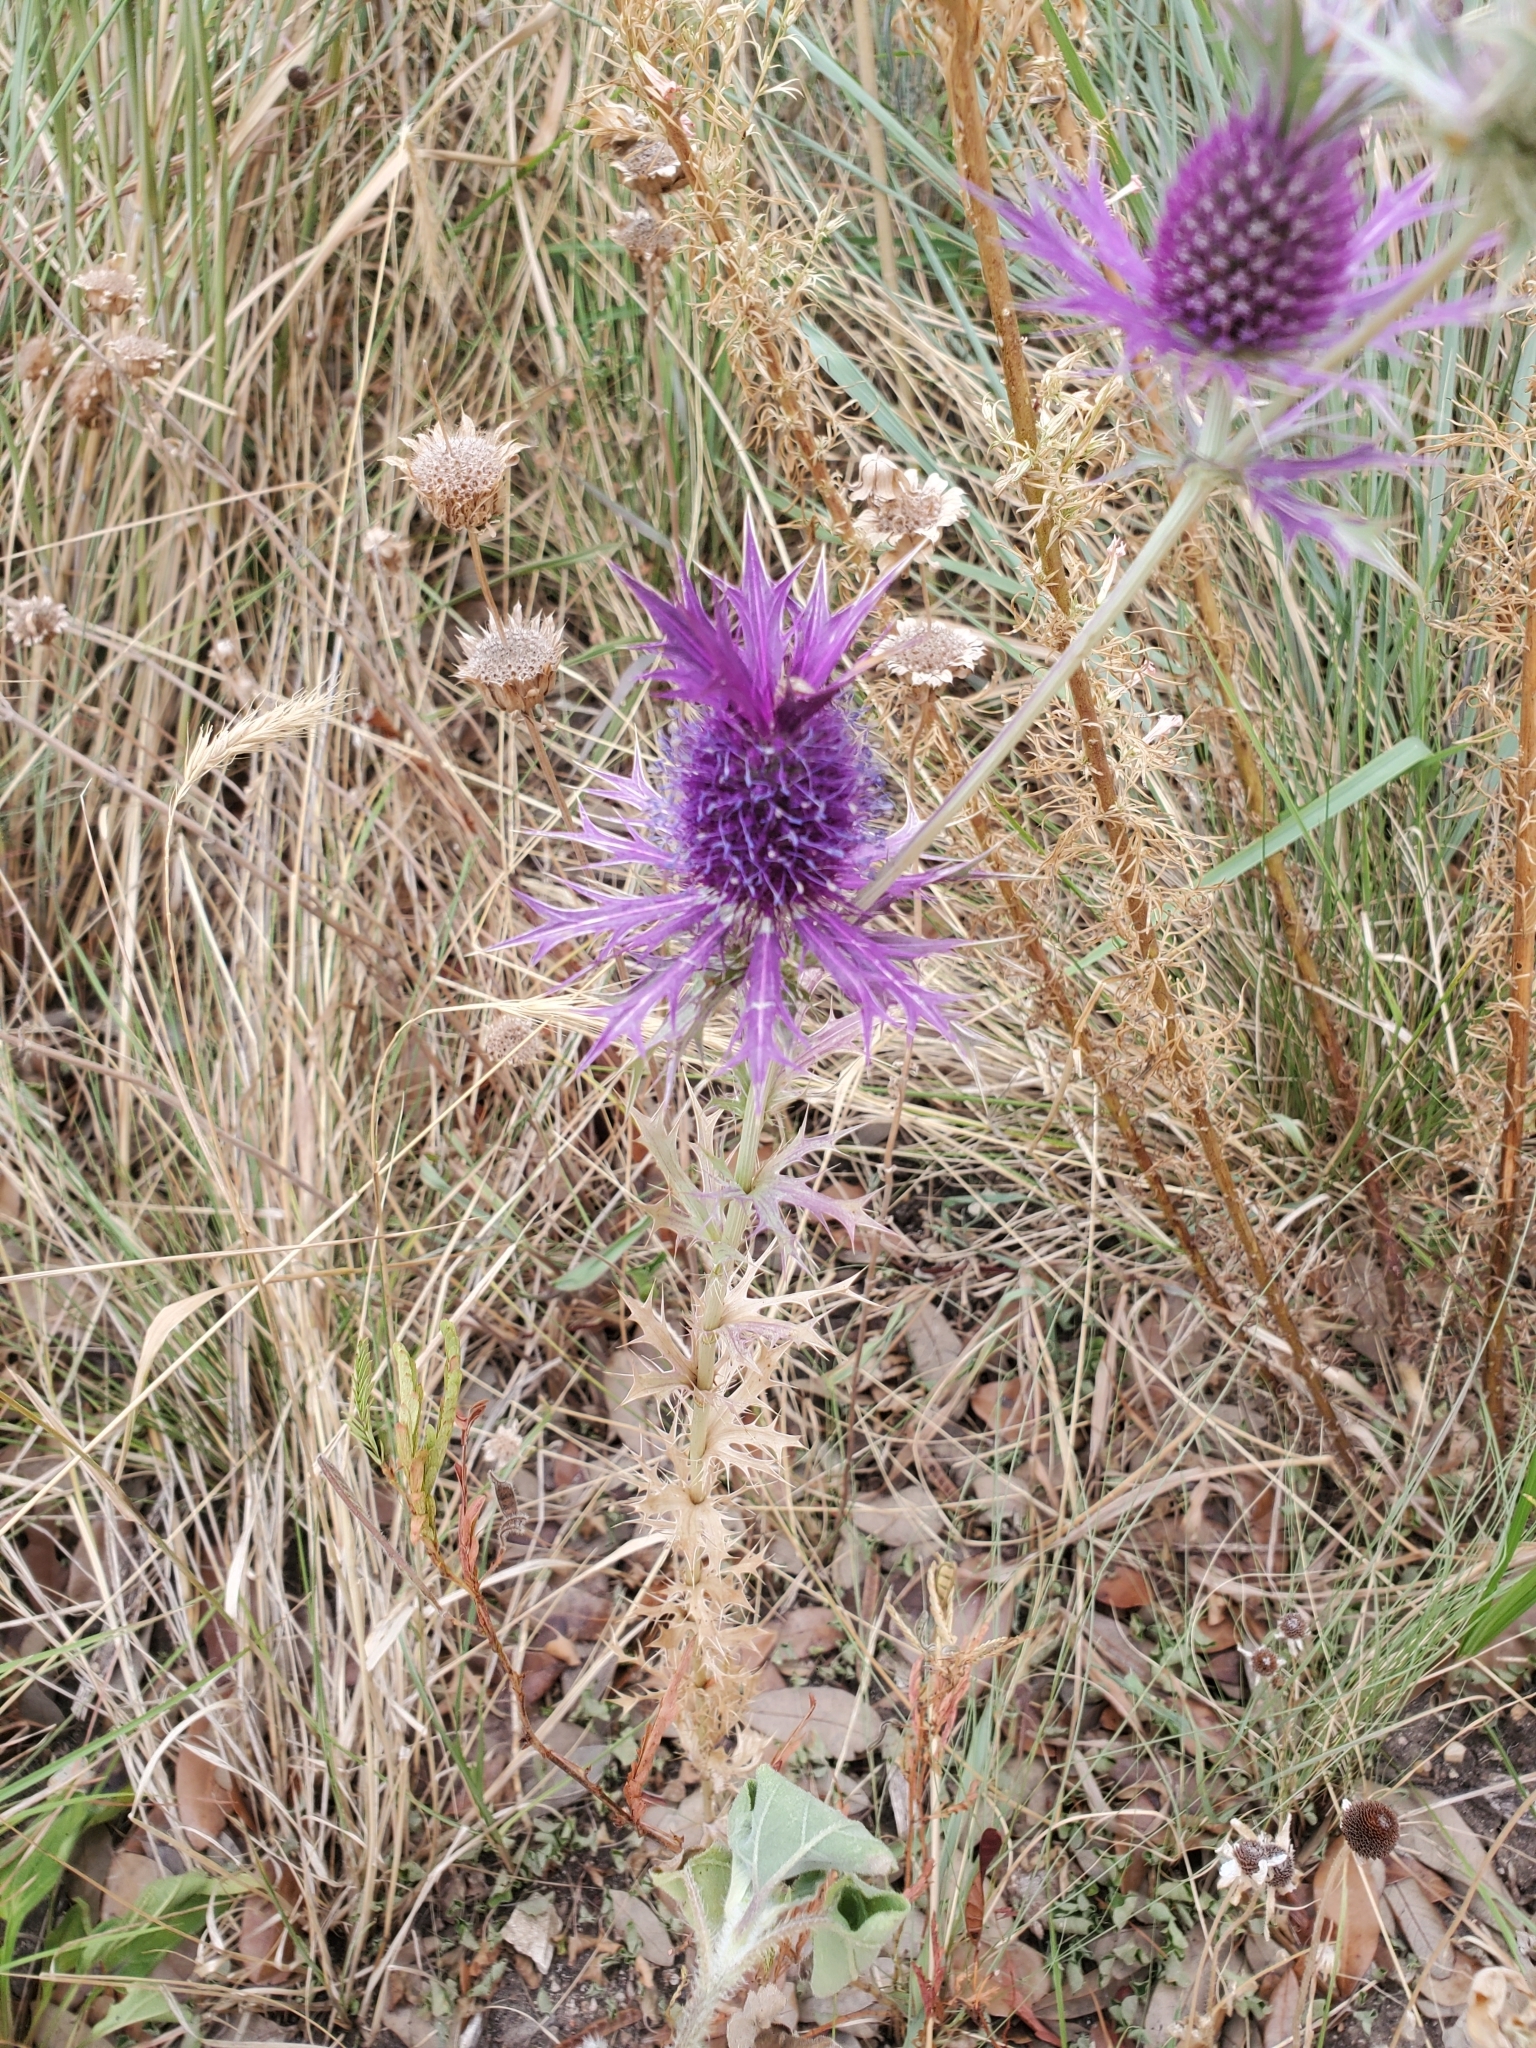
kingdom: Plantae
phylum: Tracheophyta
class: Magnoliopsida
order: Apiales
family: Apiaceae
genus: Eryngium
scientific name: Eryngium leavenworthii
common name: Leavenworth's eryngo
